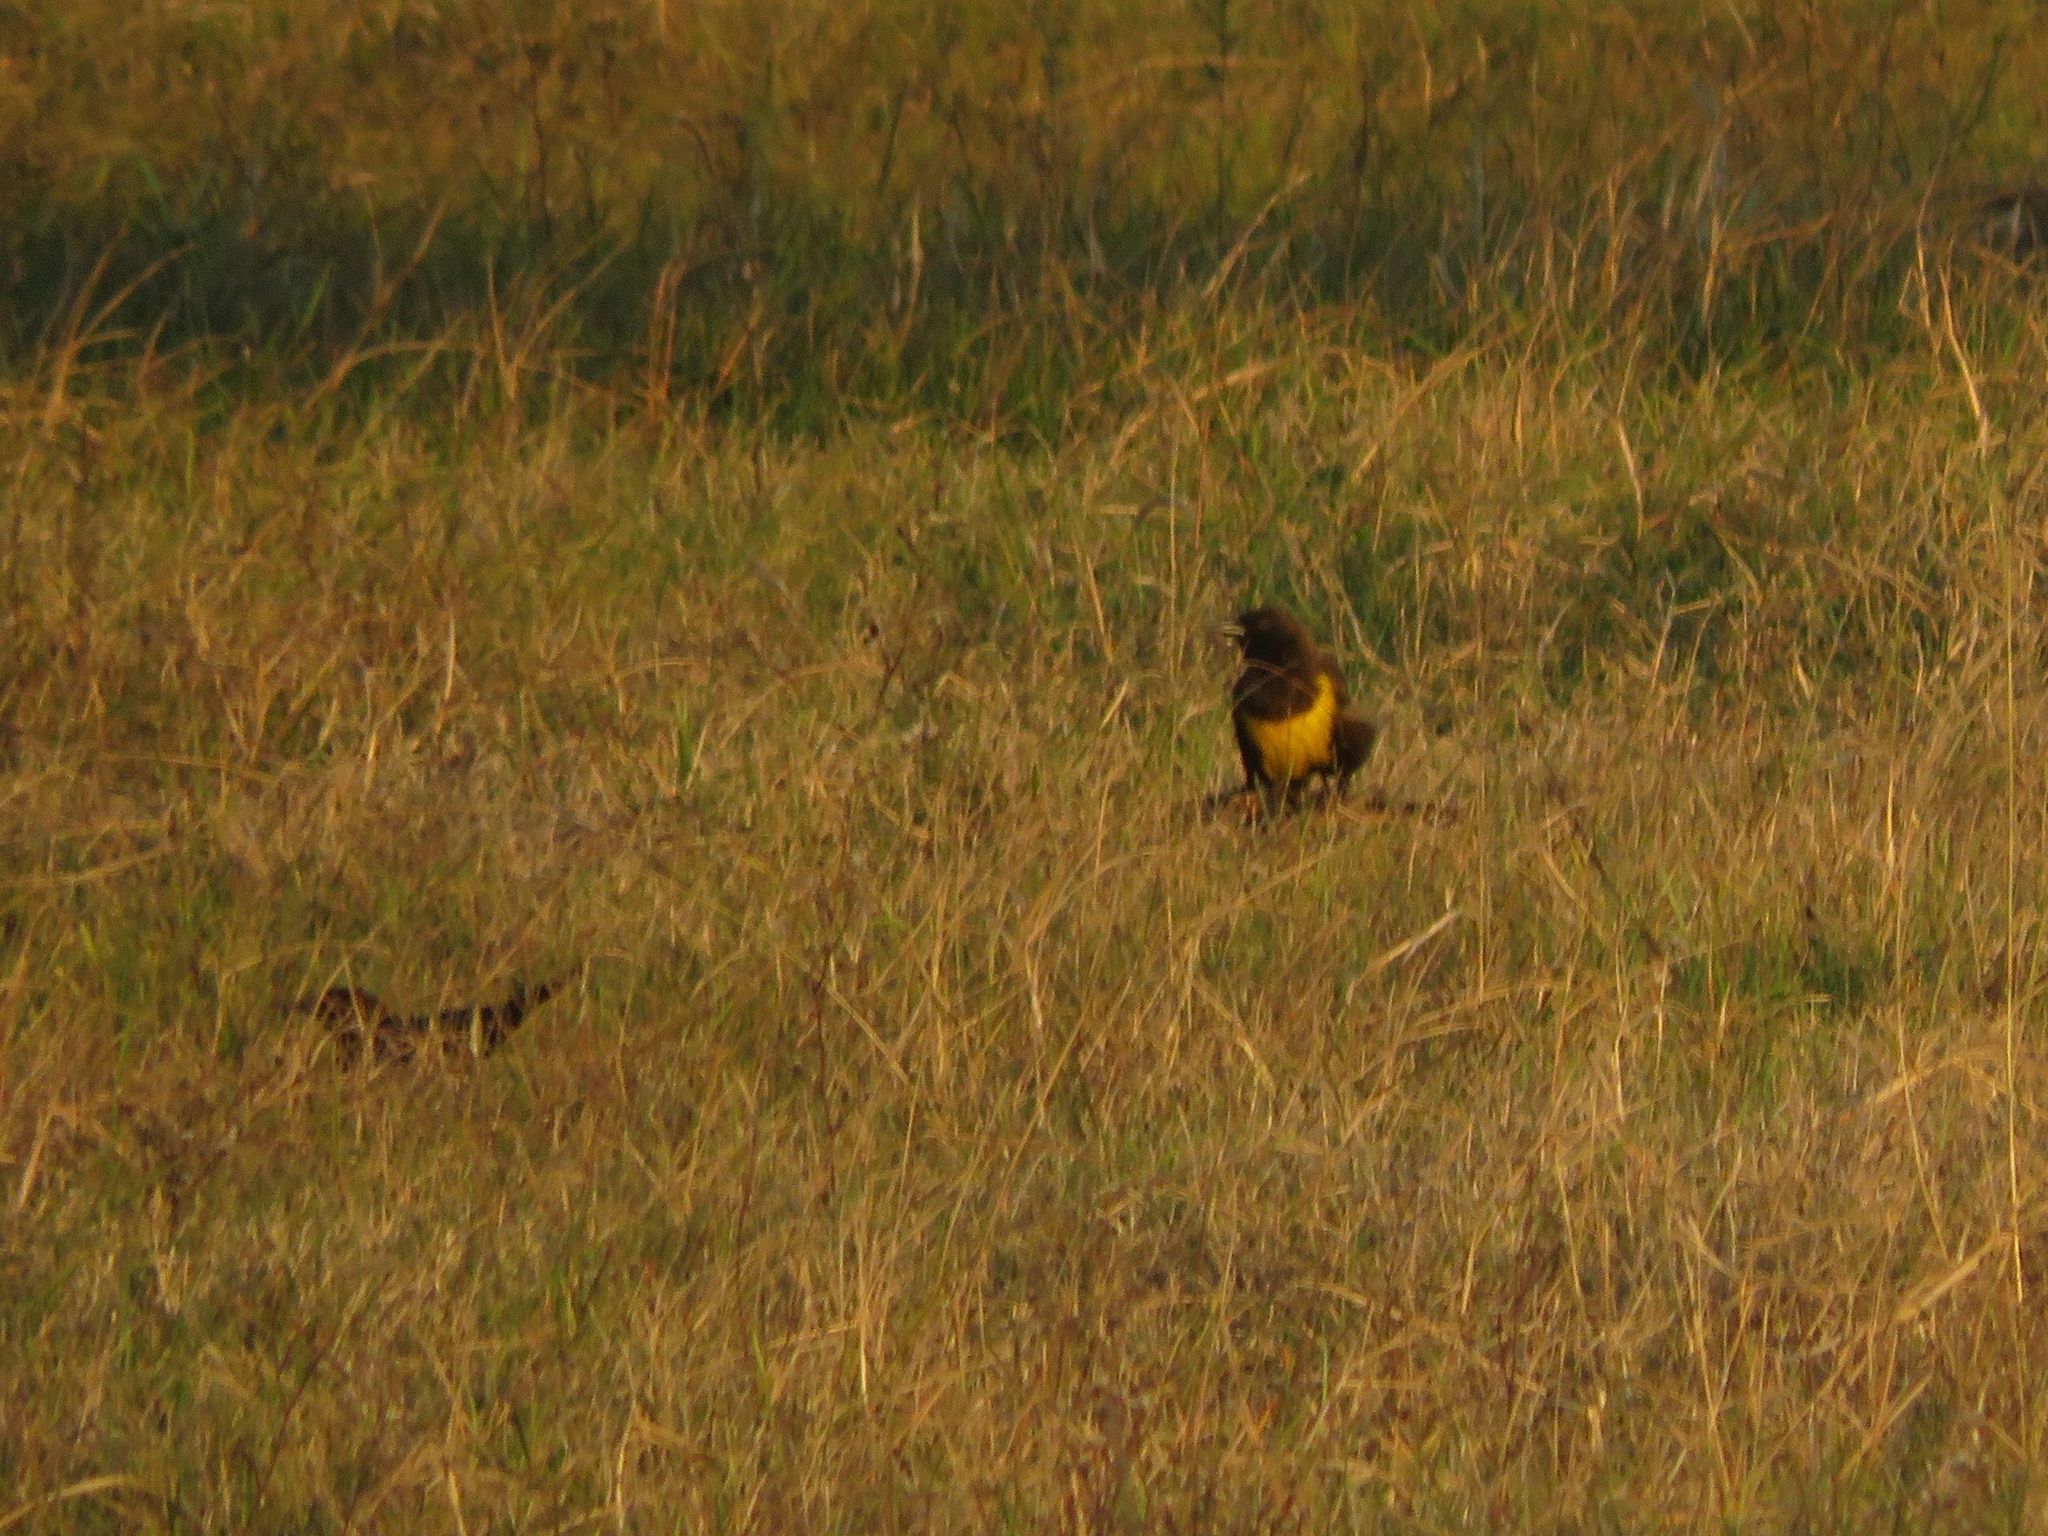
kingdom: Animalia
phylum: Chordata
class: Aves
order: Passeriformes
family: Icteridae
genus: Pseudoleistes
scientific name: Pseudoleistes virescens
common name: Brown-and-yellow marshbird
